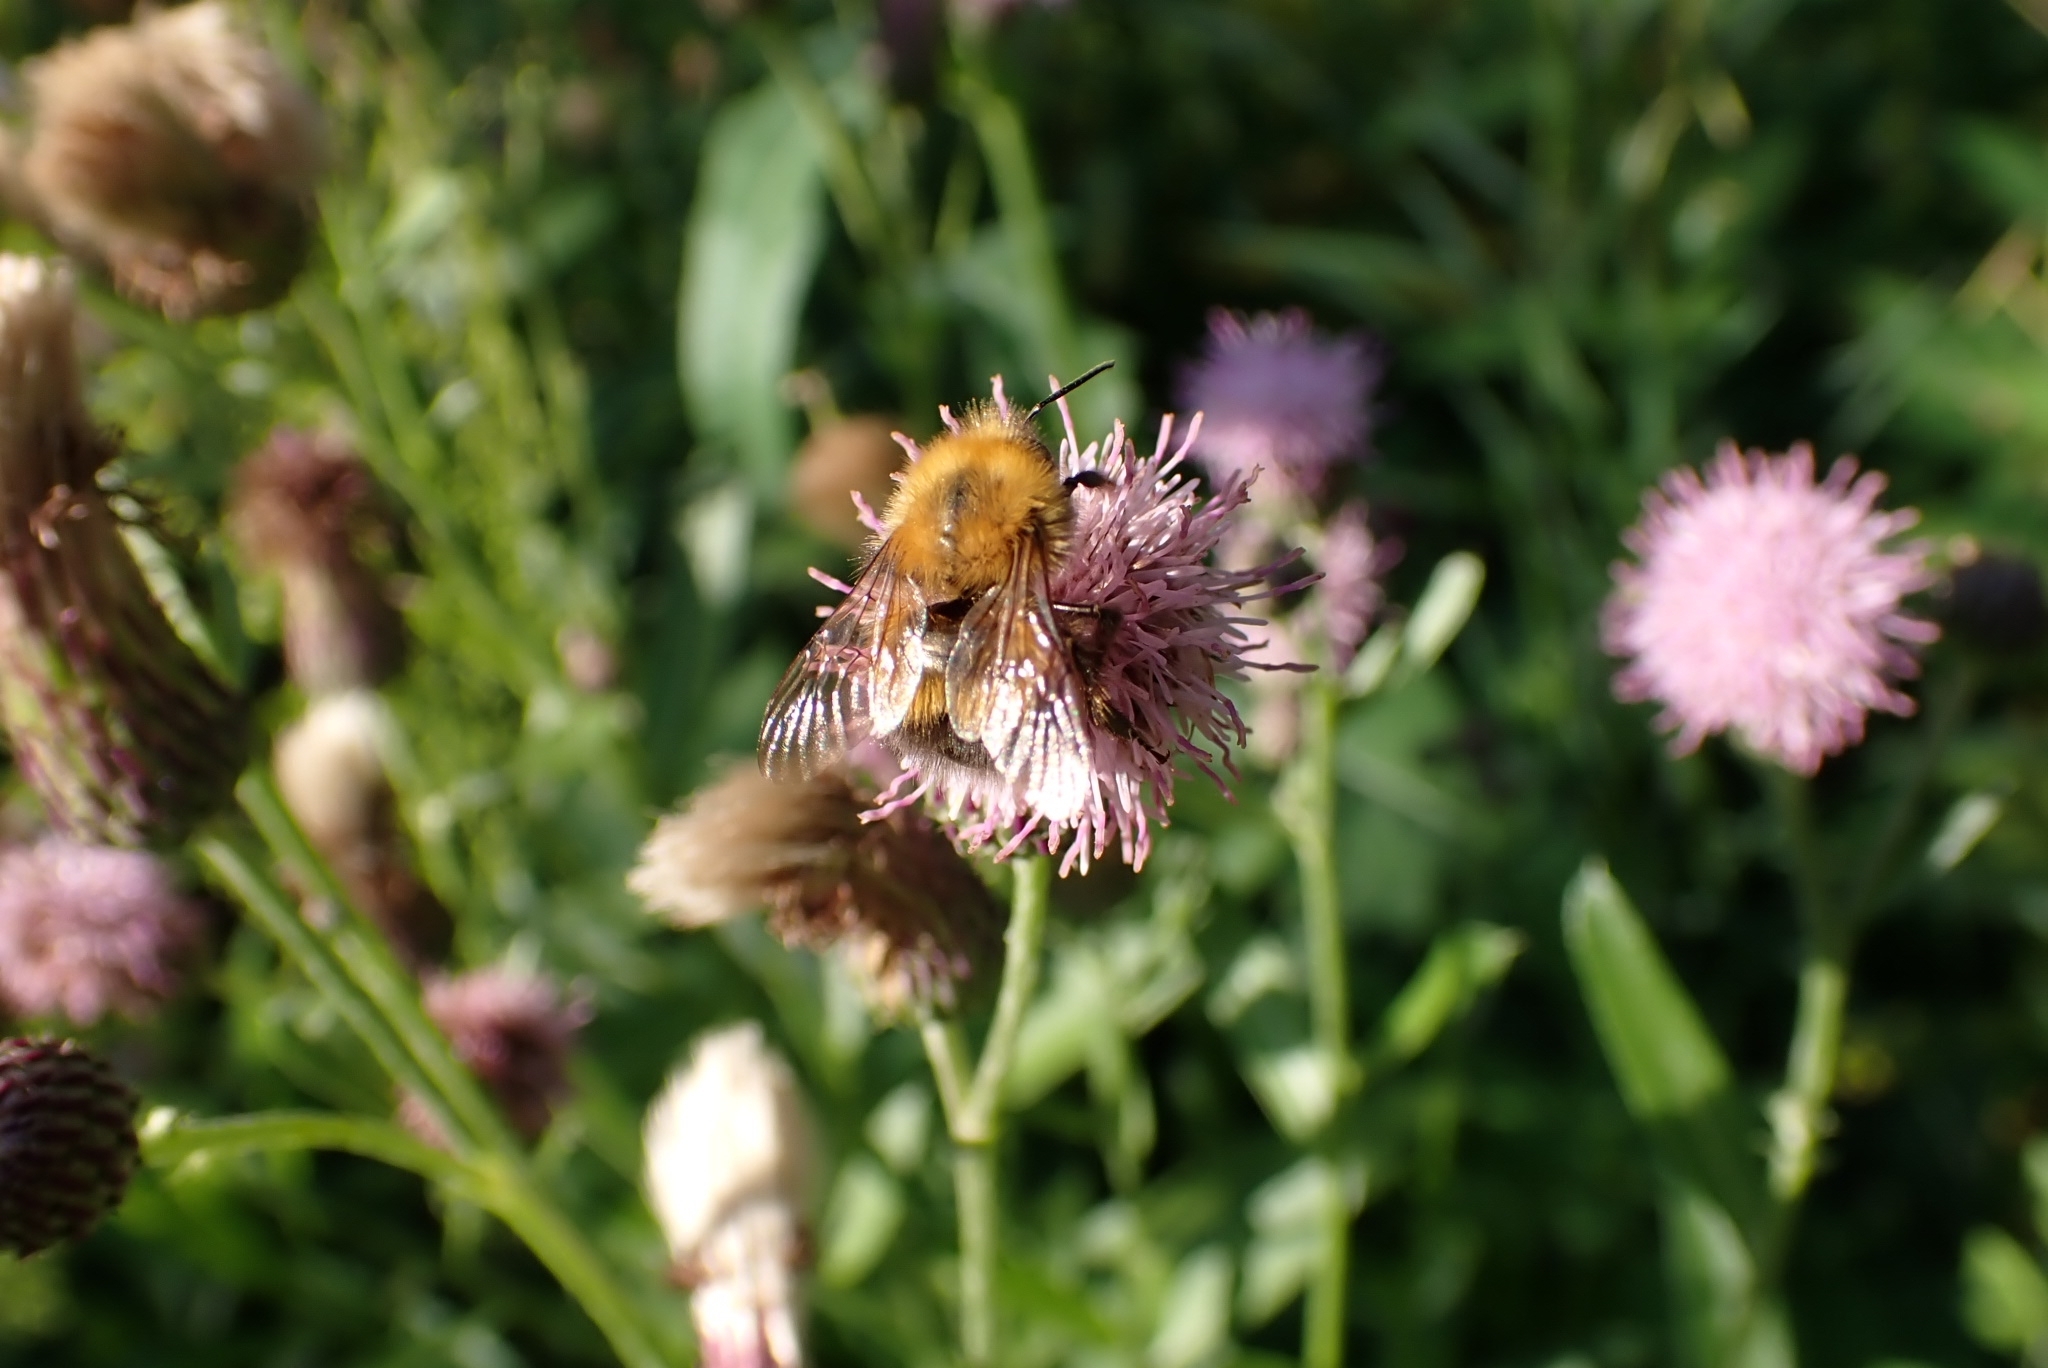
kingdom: Animalia
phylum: Arthropoda
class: Insecta
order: Hymenoptera
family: Apidae
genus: Bombus
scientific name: Bombus hypnorum
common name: New garden bumblebee
